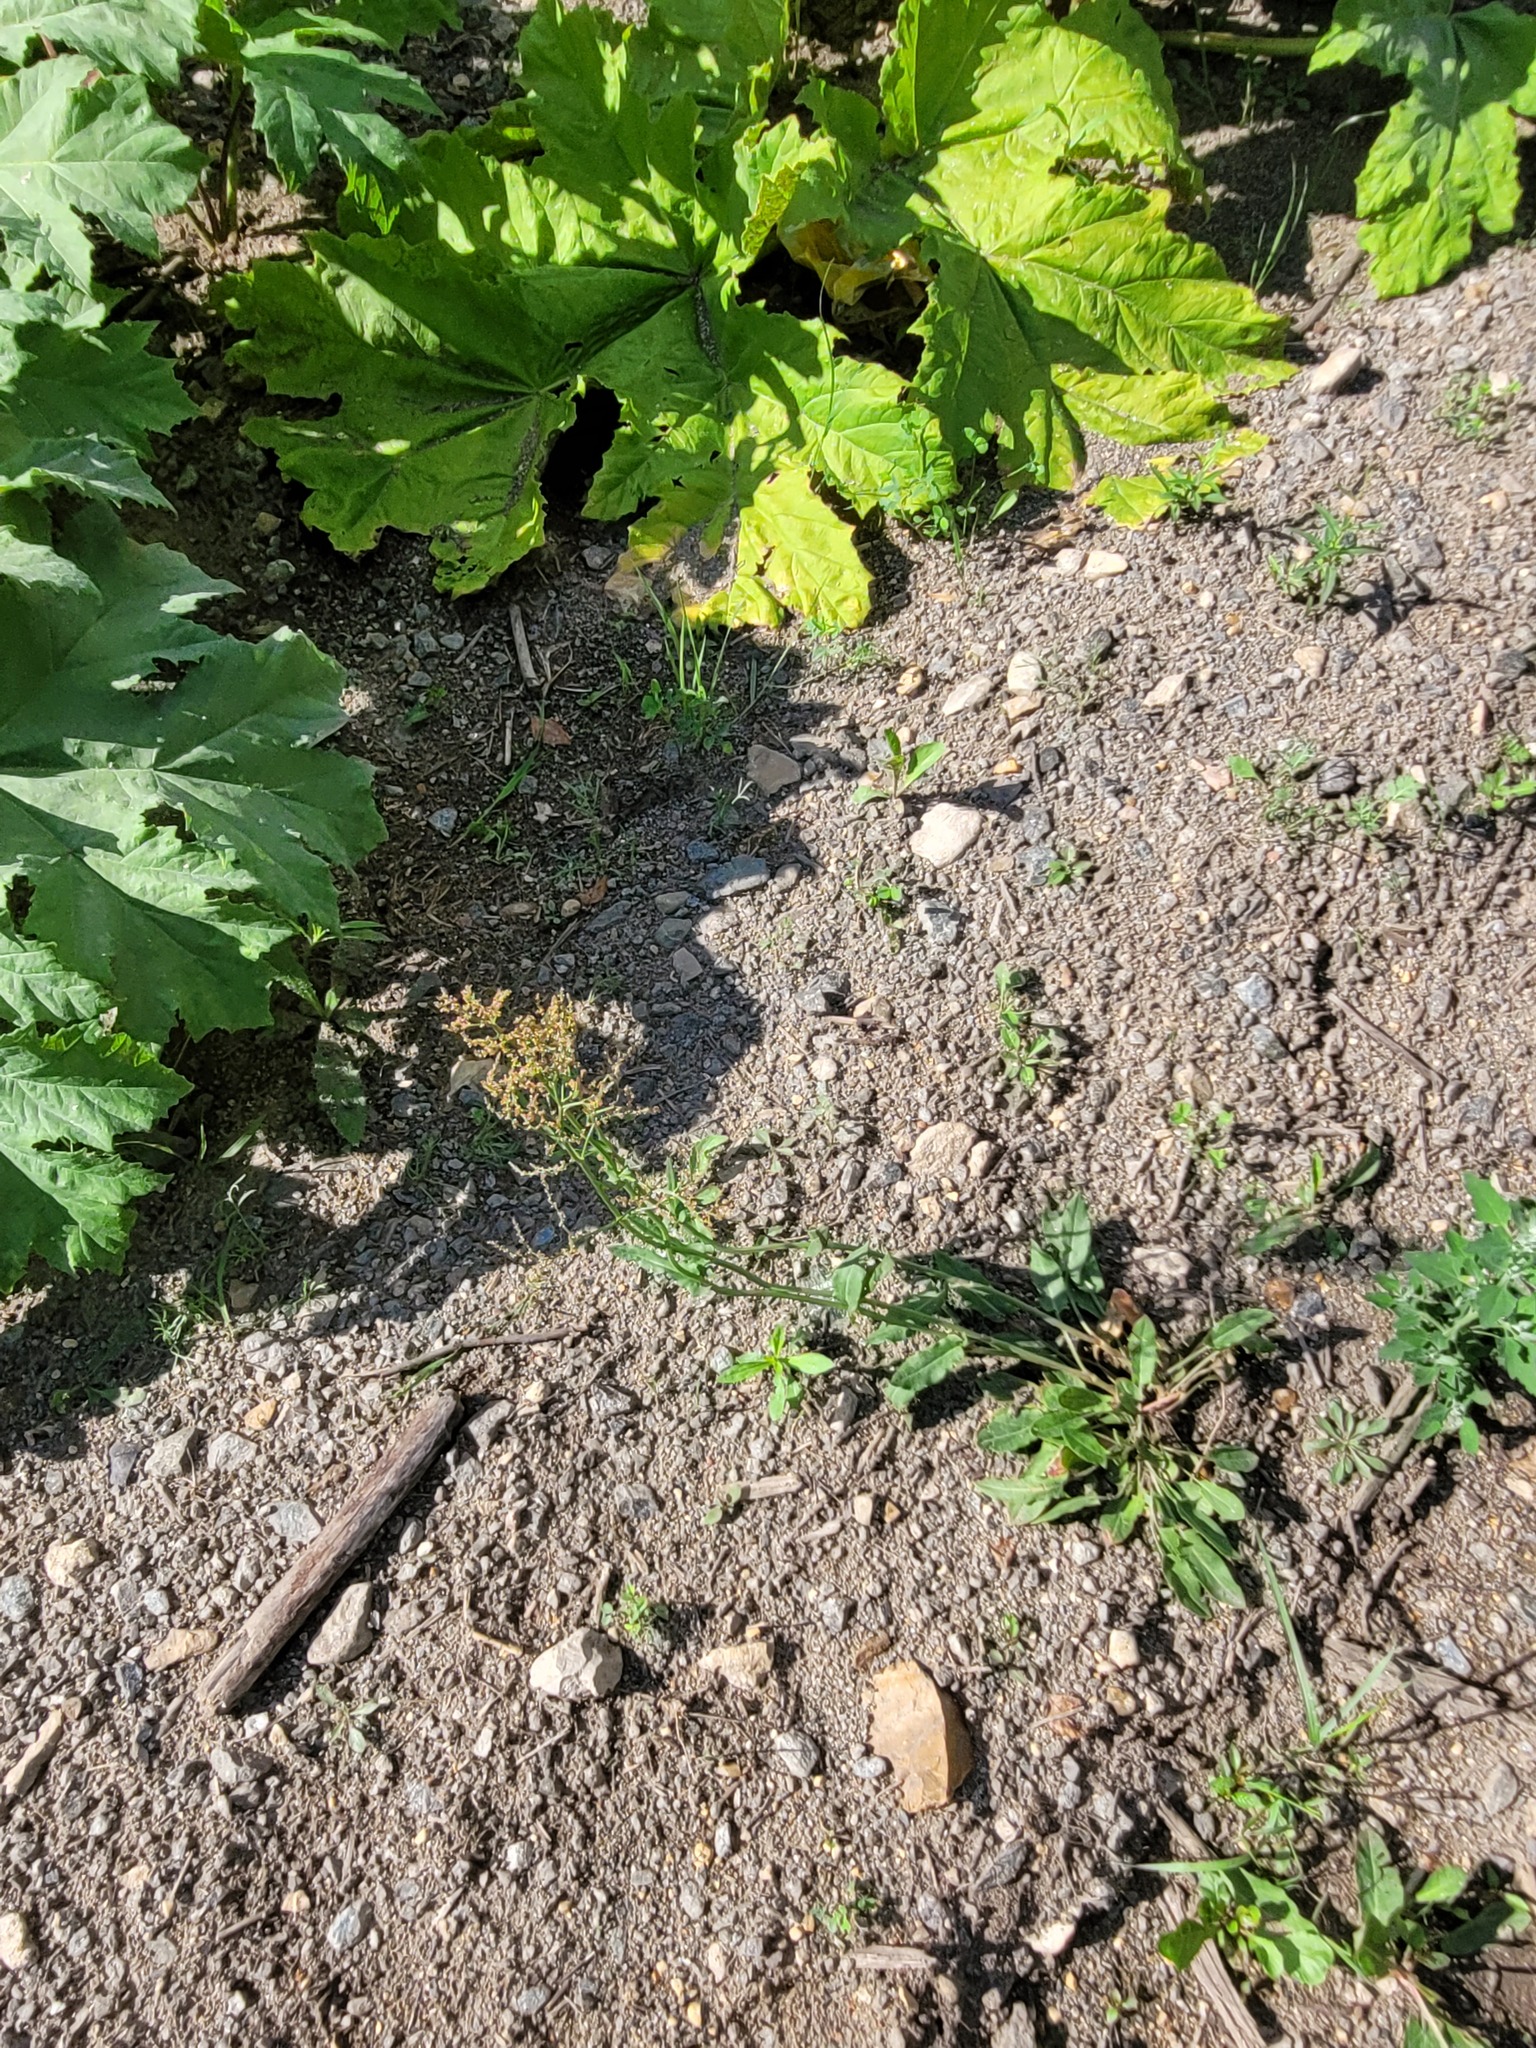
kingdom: Plantae
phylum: Tracheophyta
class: Magnoliopsida
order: Caryophyllales
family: Polygonaceae
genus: Rumex
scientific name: Rumex thyrsiflorus
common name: Garden sorrel
